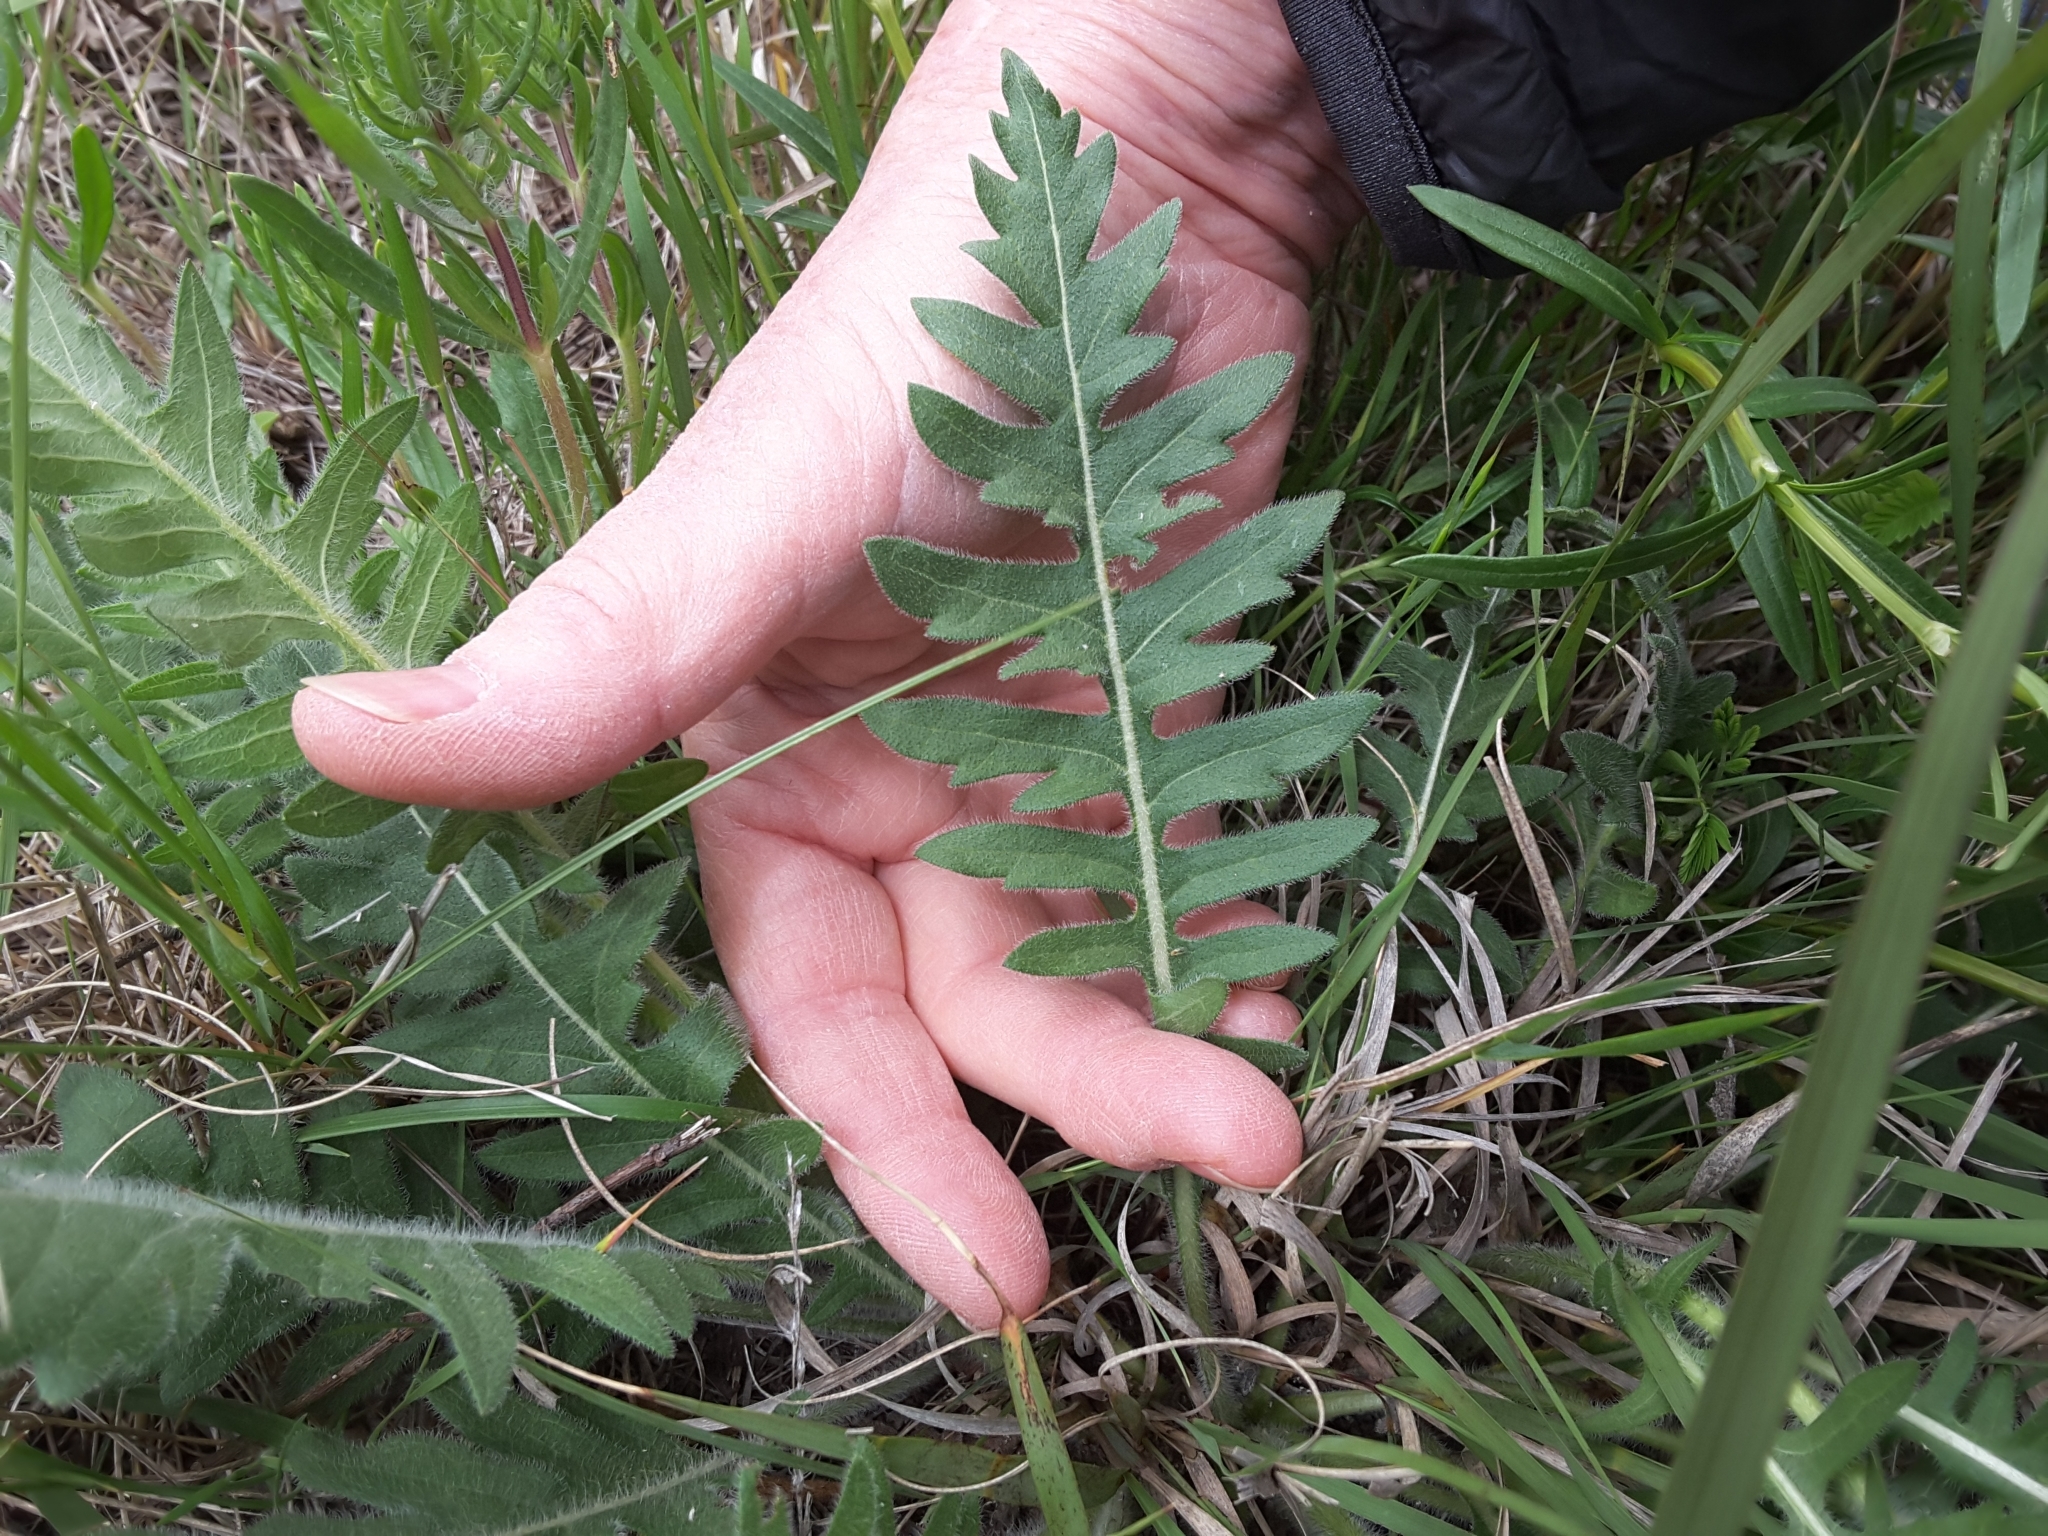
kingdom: Plantae
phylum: Tracheophyta
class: Magnoliopsida
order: Asterales
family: Asteraceae
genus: Engelmannia
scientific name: Engelmannia peristenia
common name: Engelmann's daisy
